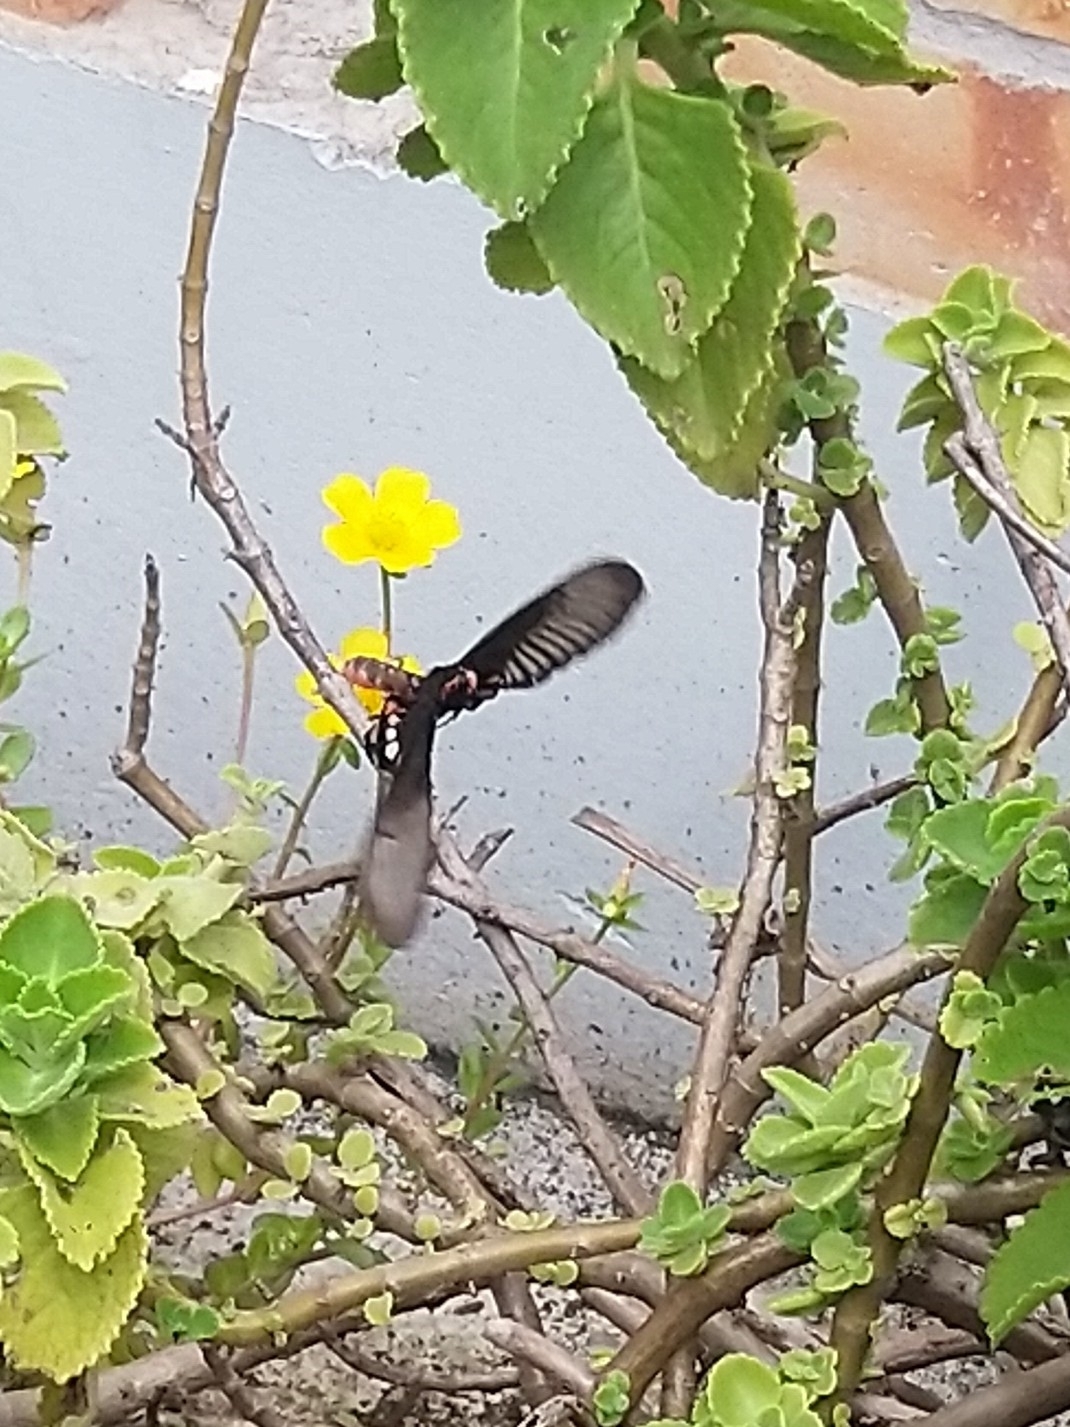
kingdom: Animalia
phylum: Arthropoda
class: Insecta
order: Lepidoptera
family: Papilionidae
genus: Pachliopta
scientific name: Pachliopta aristolochiae
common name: Common rose
